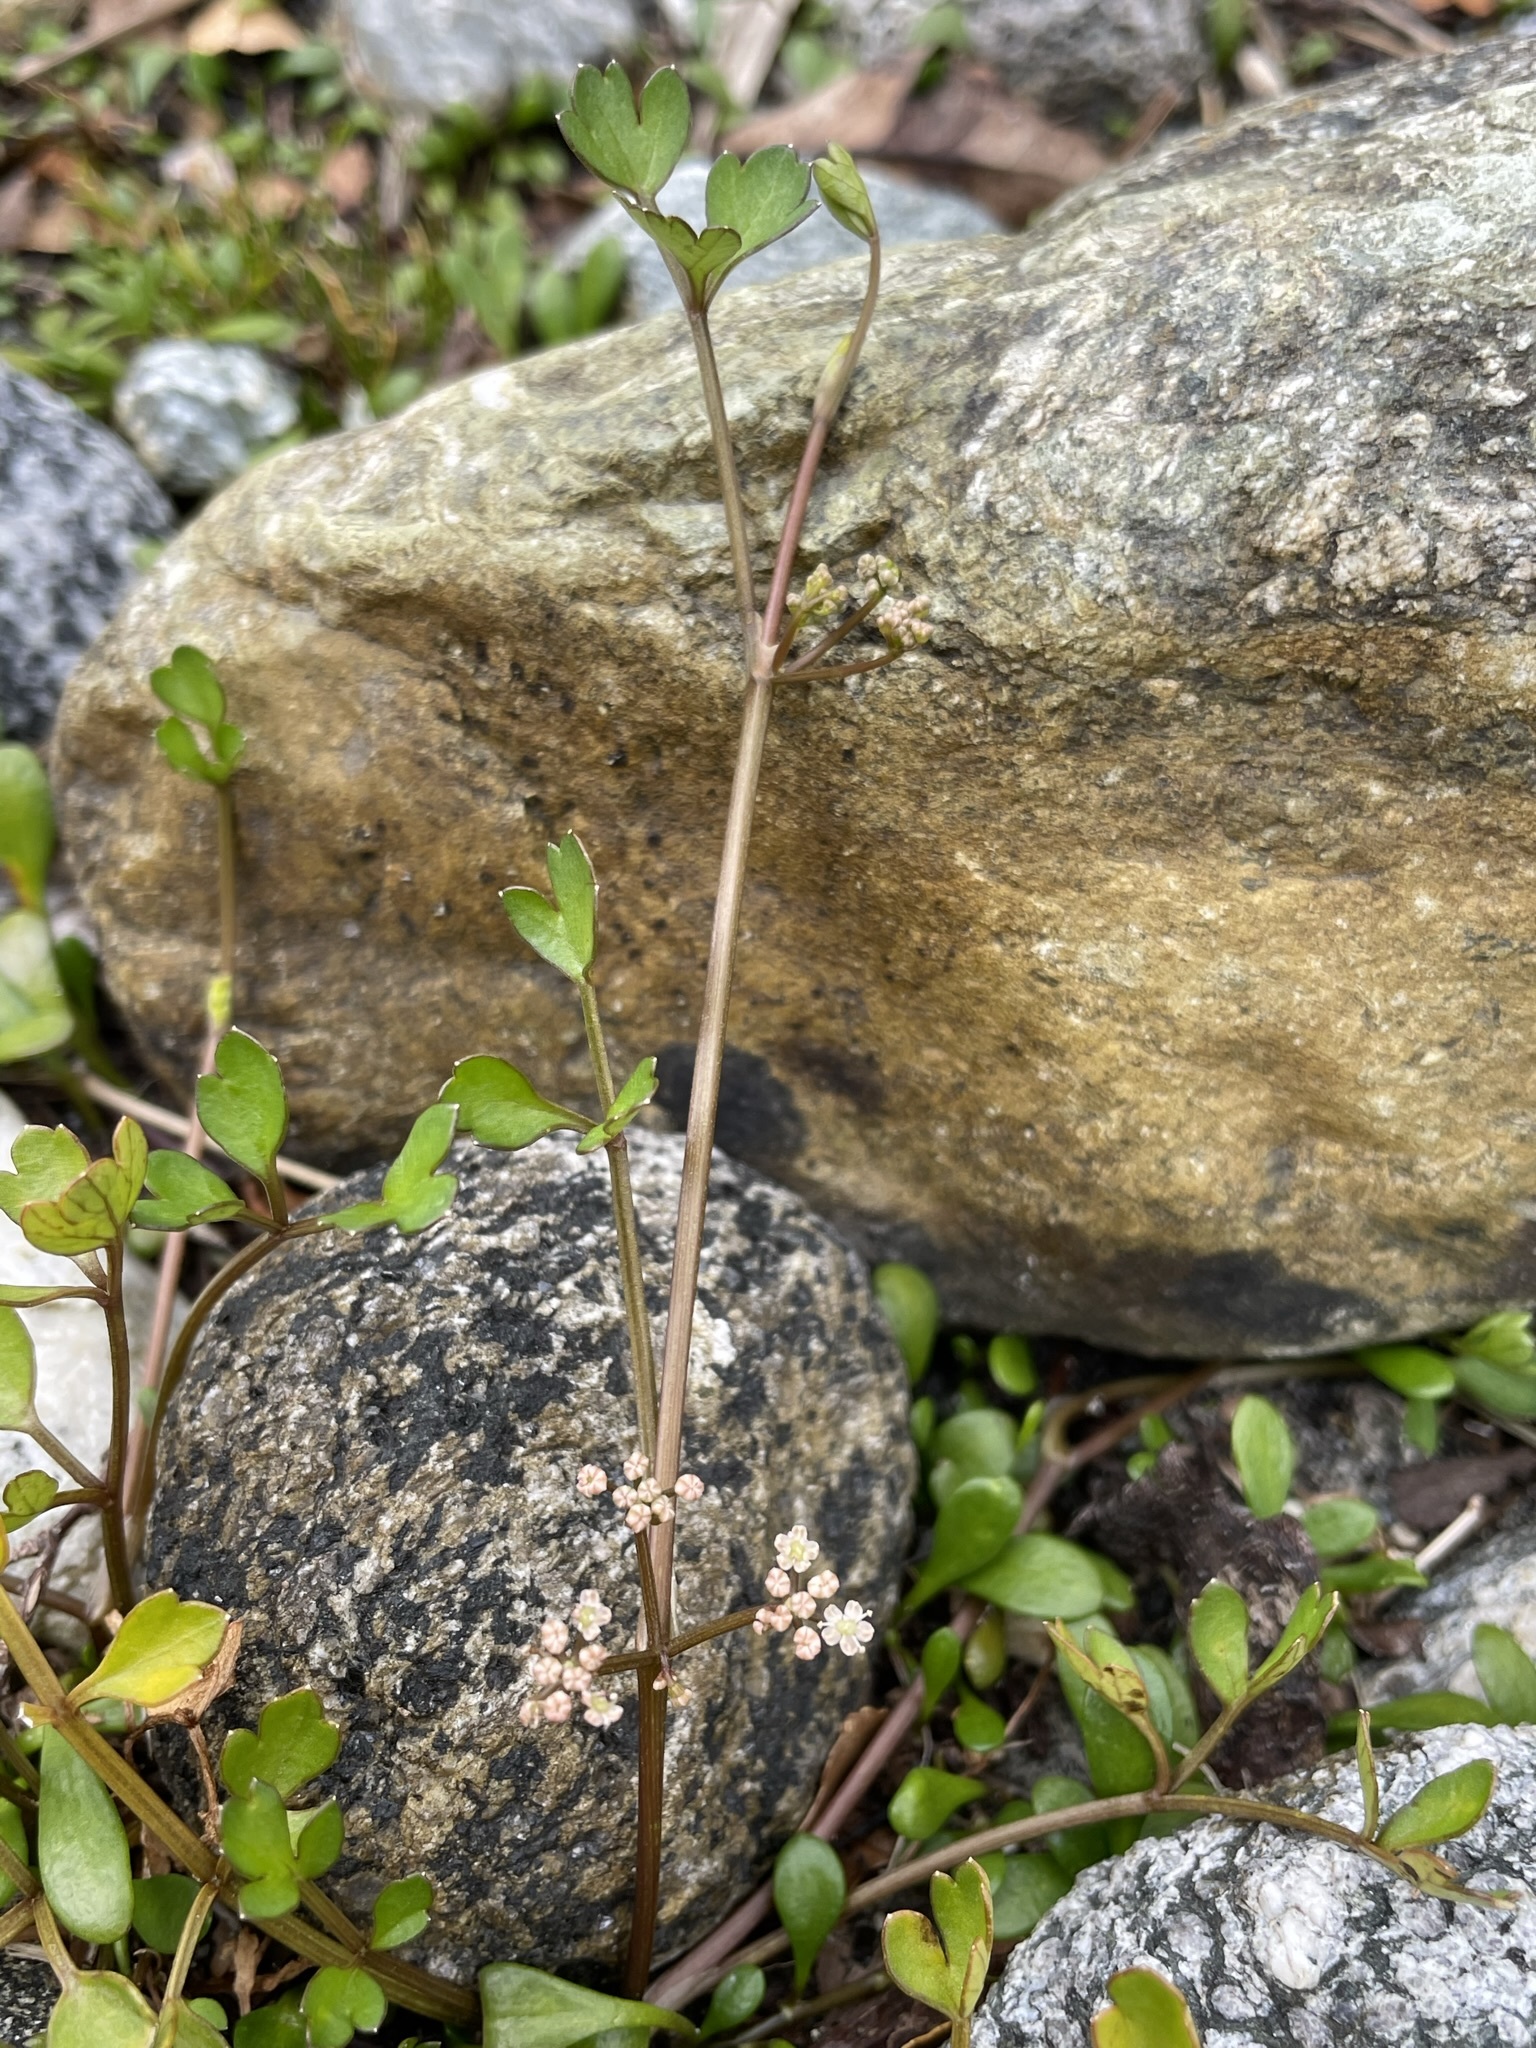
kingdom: Plantae
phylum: Tracheophyta
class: Magnoliopsida
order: Apiales
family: Apiaceae
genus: Apium
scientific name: Apium prostratum
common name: Prostrate marshwort
